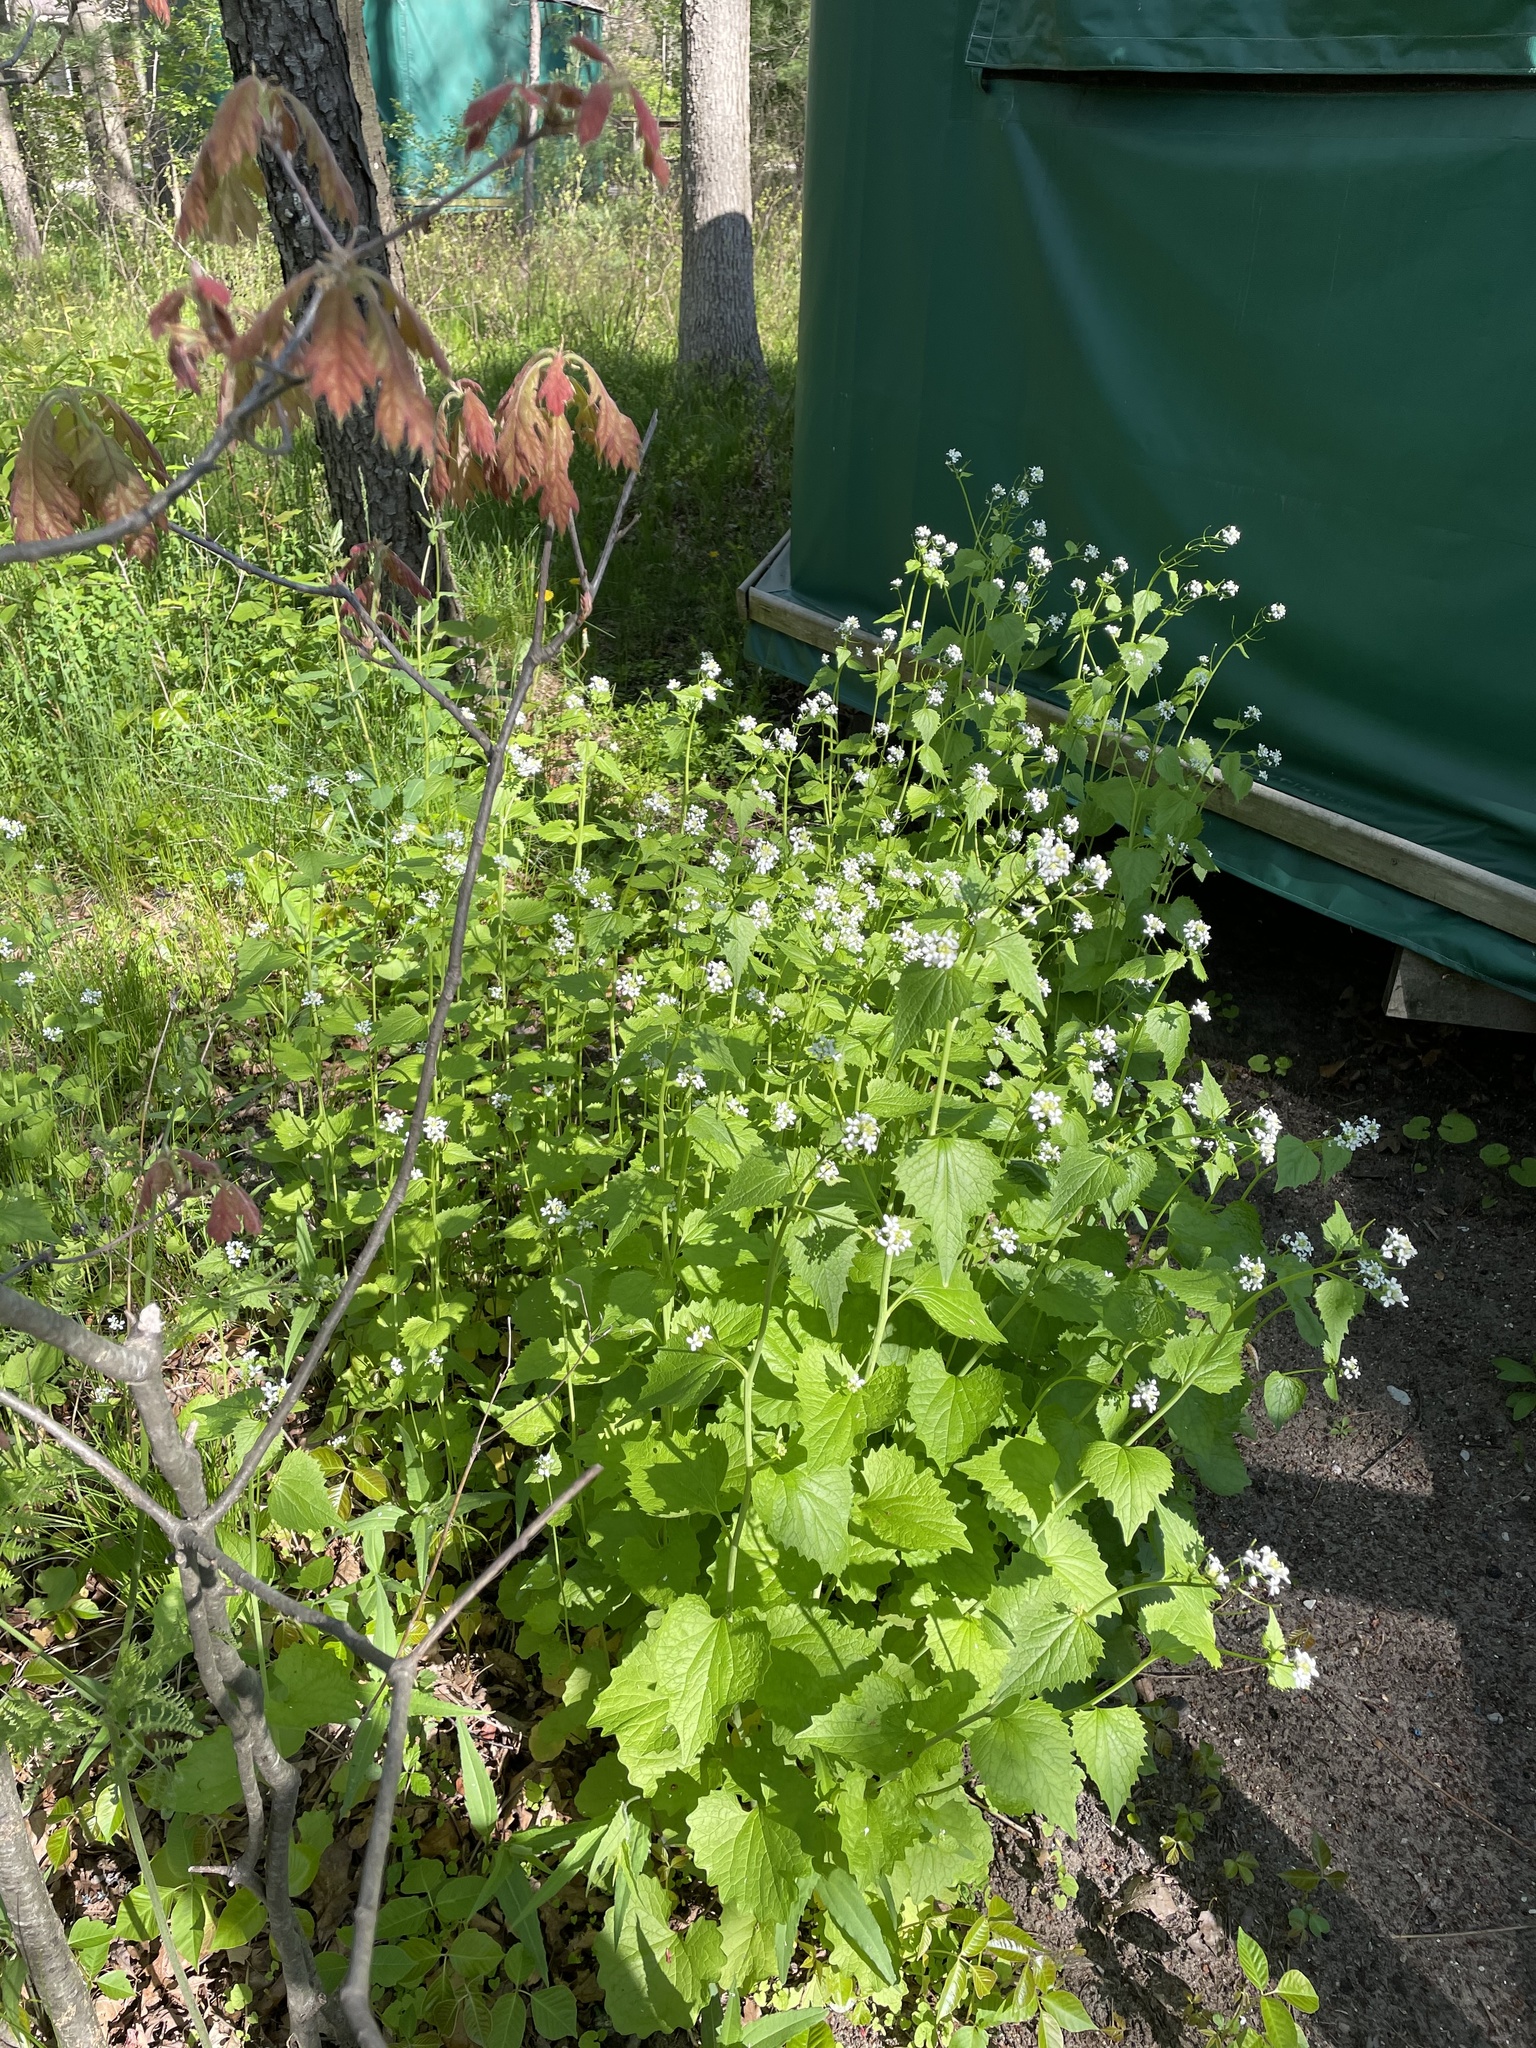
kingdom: Plantae
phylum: Tracheophyta
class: Magnoliopsida
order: Brassicales
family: Brassicaceae
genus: Alliaria
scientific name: Alliaria petiolata
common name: Garlic mustard
